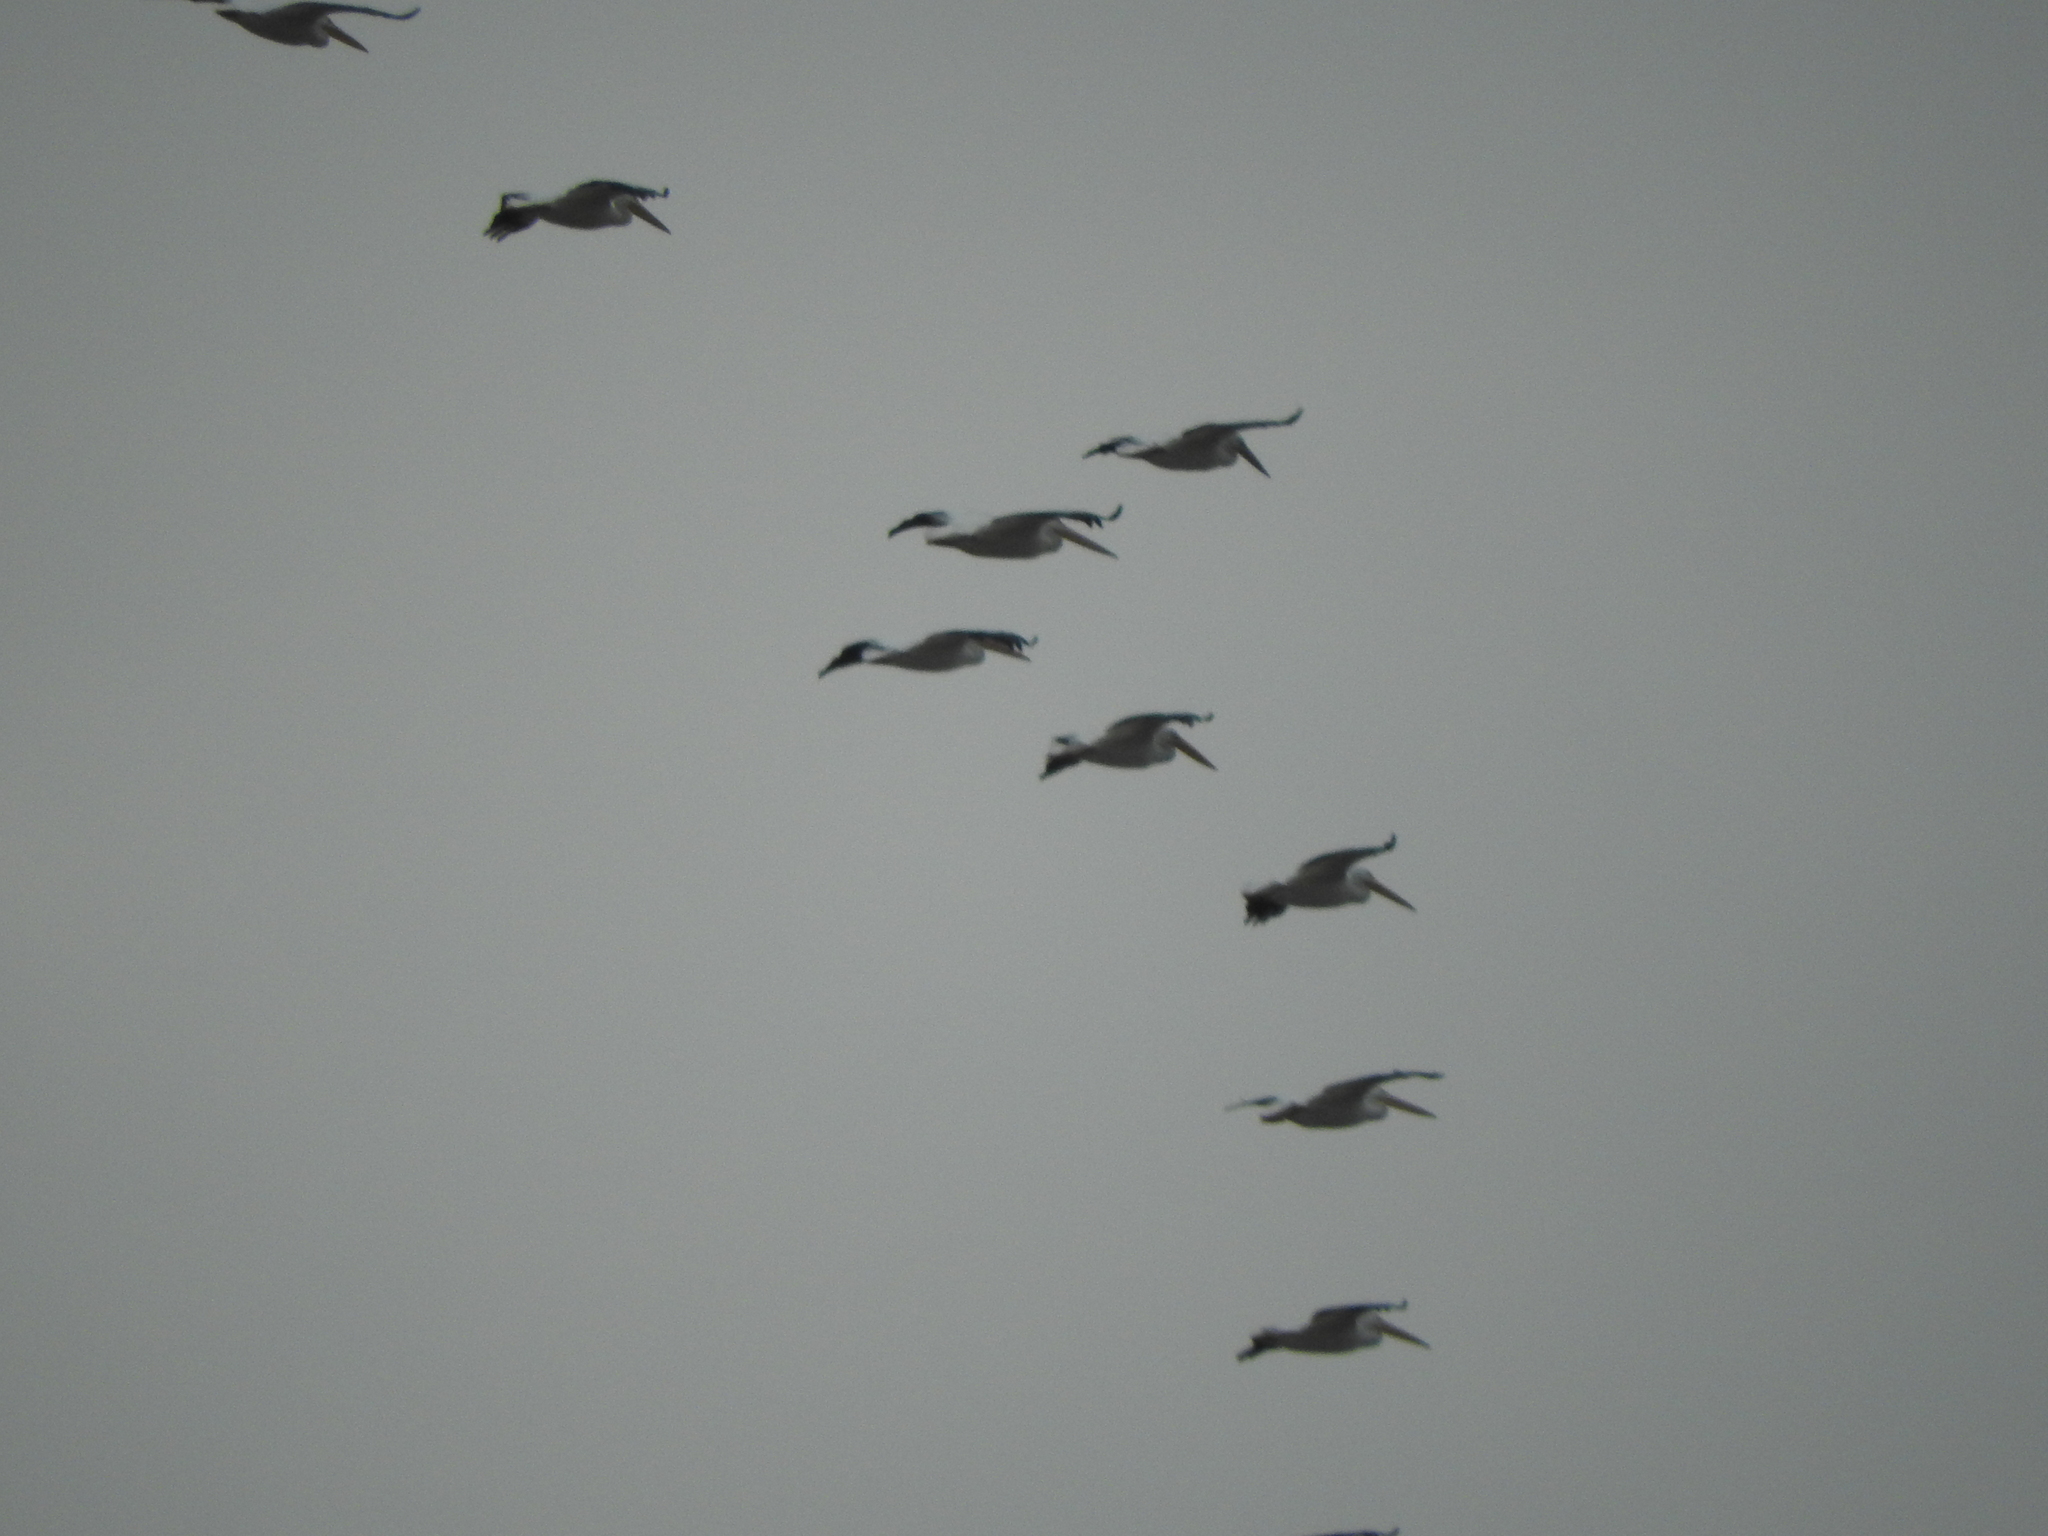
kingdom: Animalia
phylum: Chordata
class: Aves
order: Pelecaniformes
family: Pelecanidae
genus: Pelecanus
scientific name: Pelecanus erythrorhynchos
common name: American white pelican
